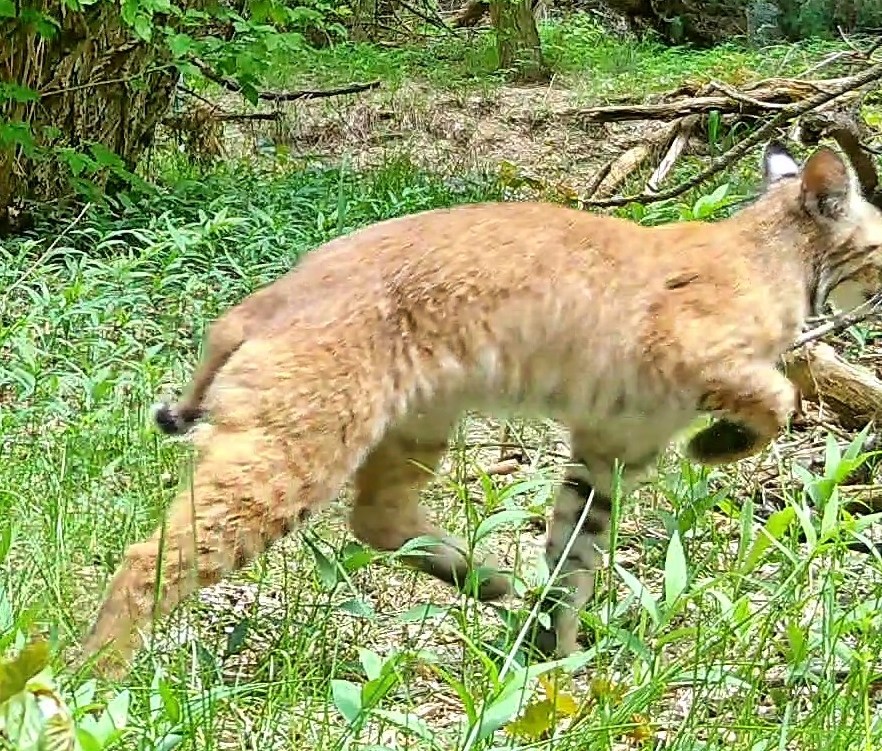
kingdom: Animalia
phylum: Chordata
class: Mammalia
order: Carnivora
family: Felidae
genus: Lynx
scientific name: Lynx rufus
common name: Bobcat
